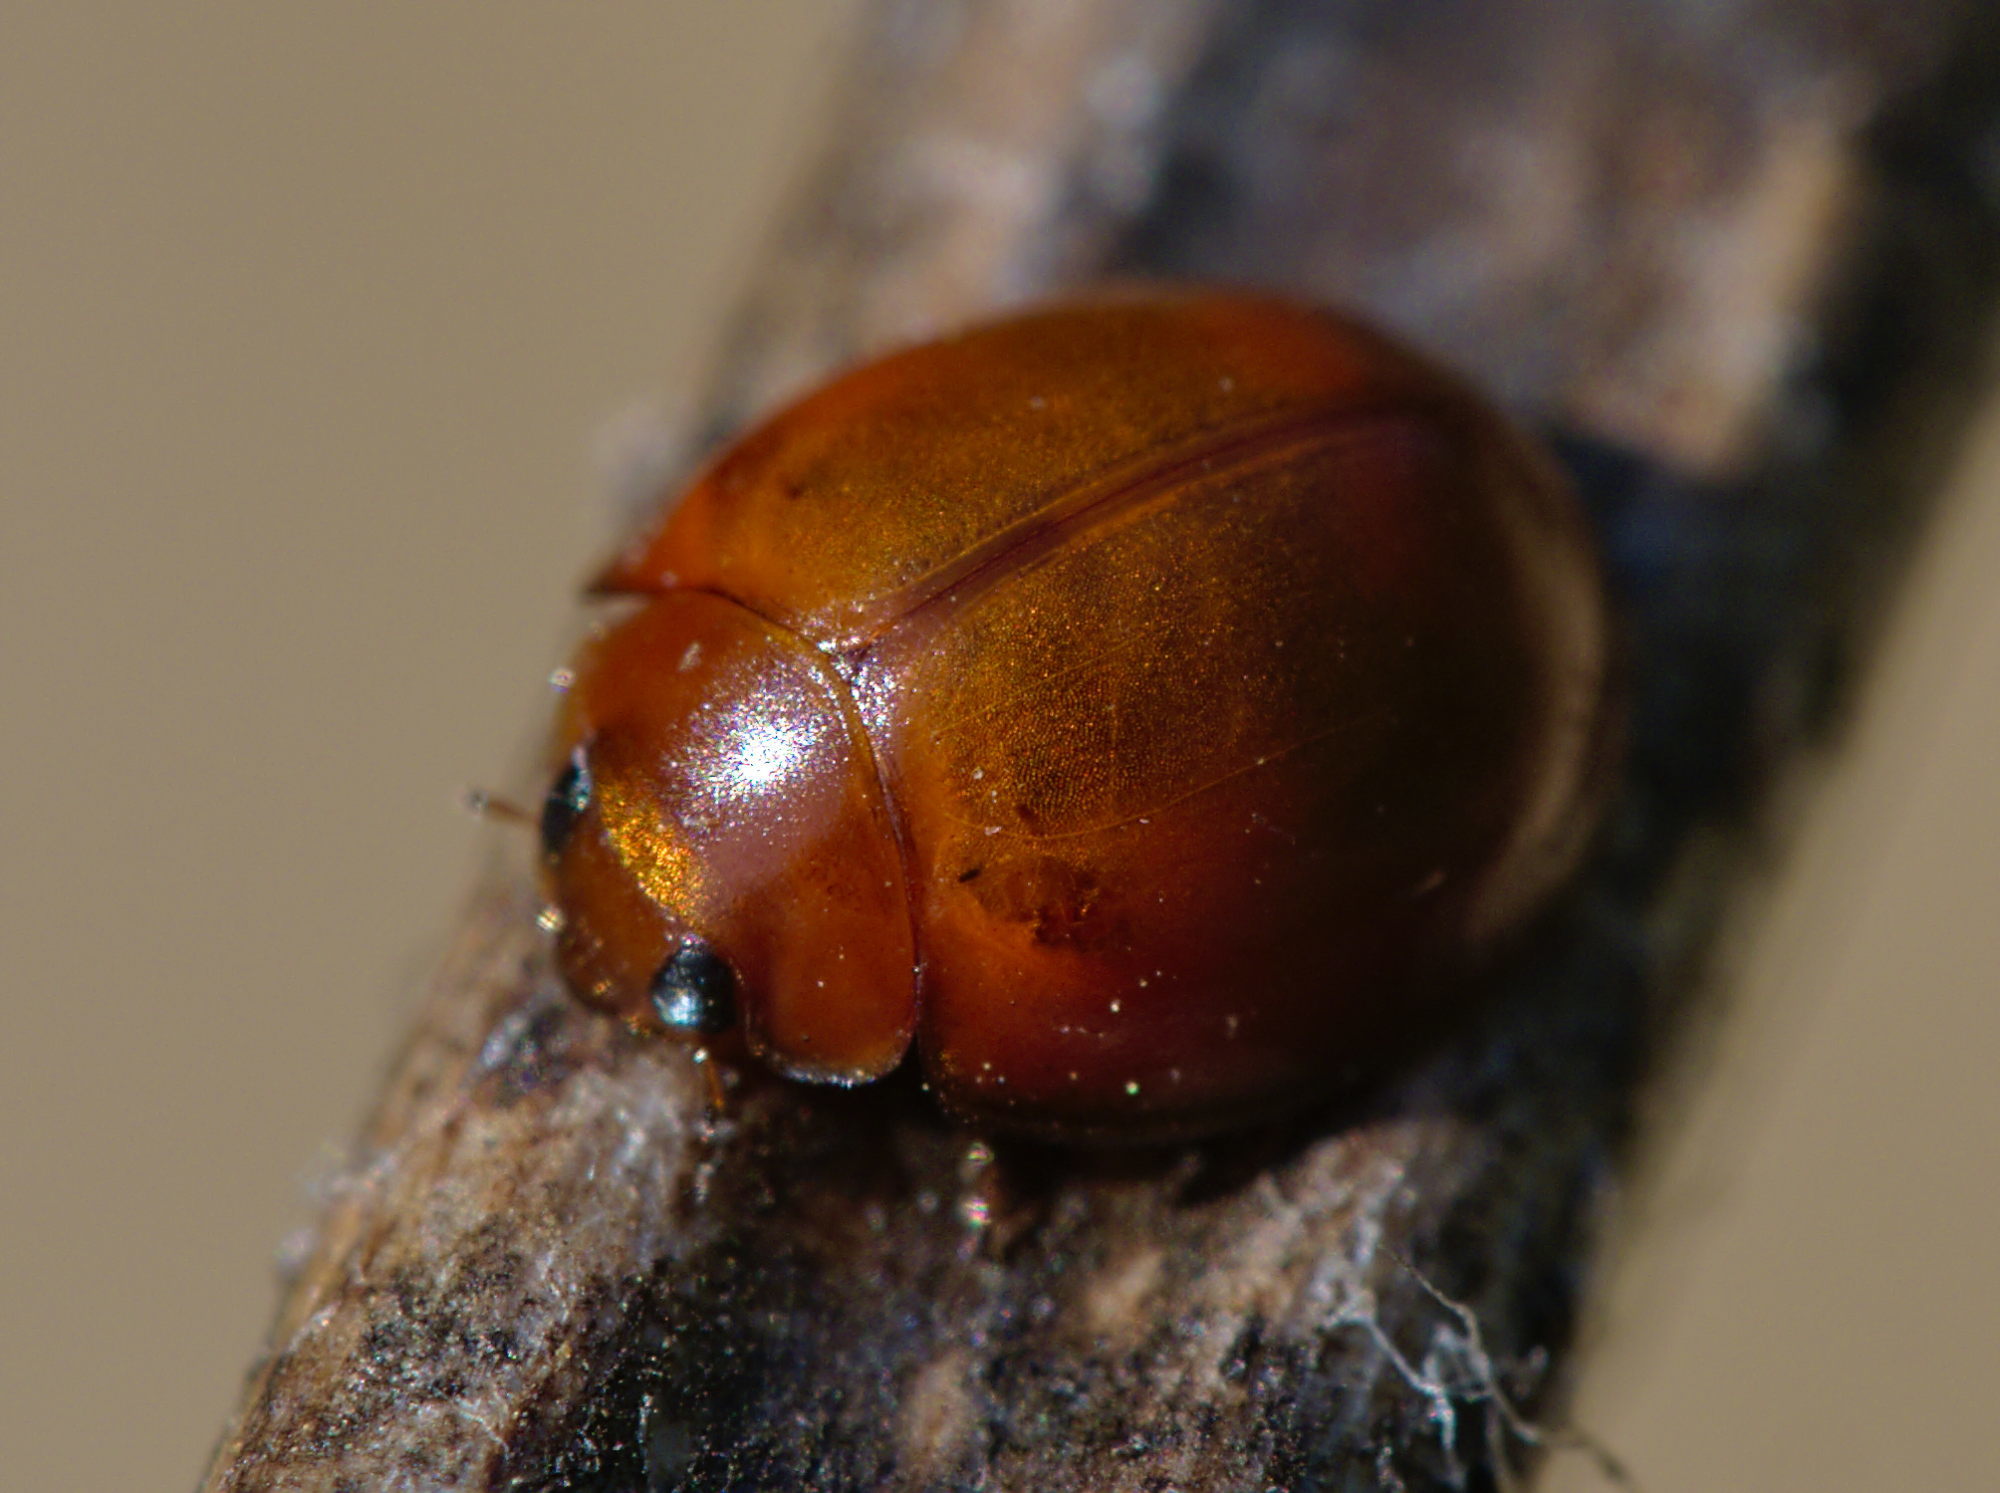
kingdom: Animalia
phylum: Arthropoda
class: Insecta
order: Coleoptera
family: Coccinellidae
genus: Brumus
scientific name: Brumus quadripustulatus
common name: Ladybird beetle
